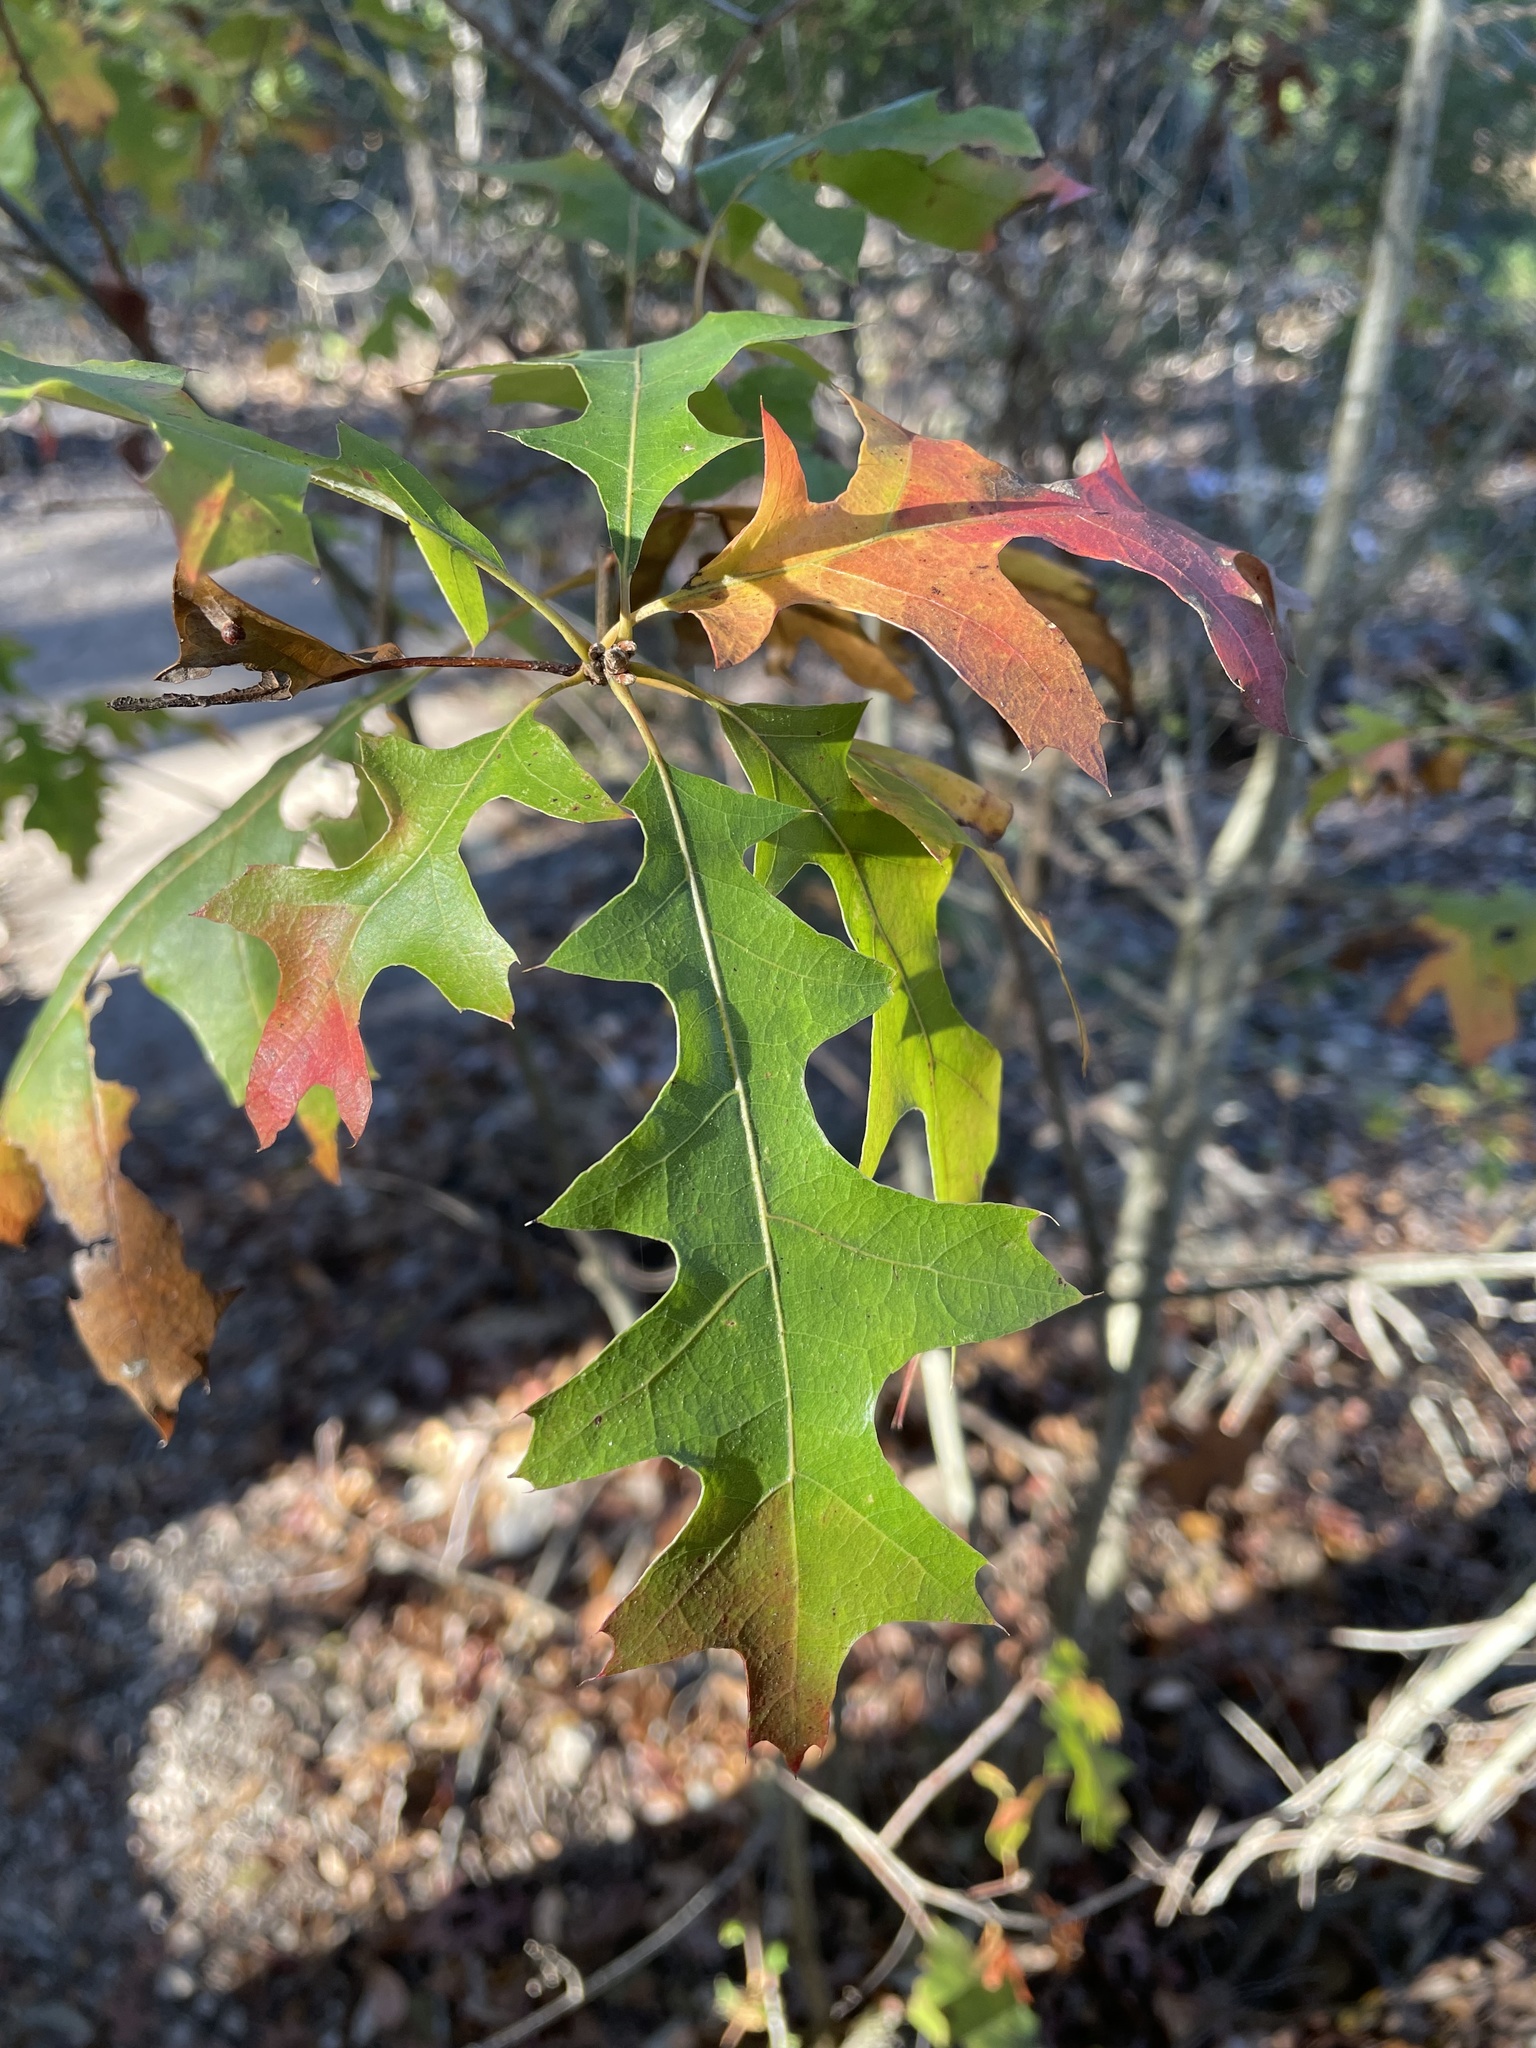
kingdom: Plantae
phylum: Tracheophyta
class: Magnoliopsida
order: Fagales
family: Fagaceae
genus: Quercus
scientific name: Quercus buckleyi
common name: Buckley oak
